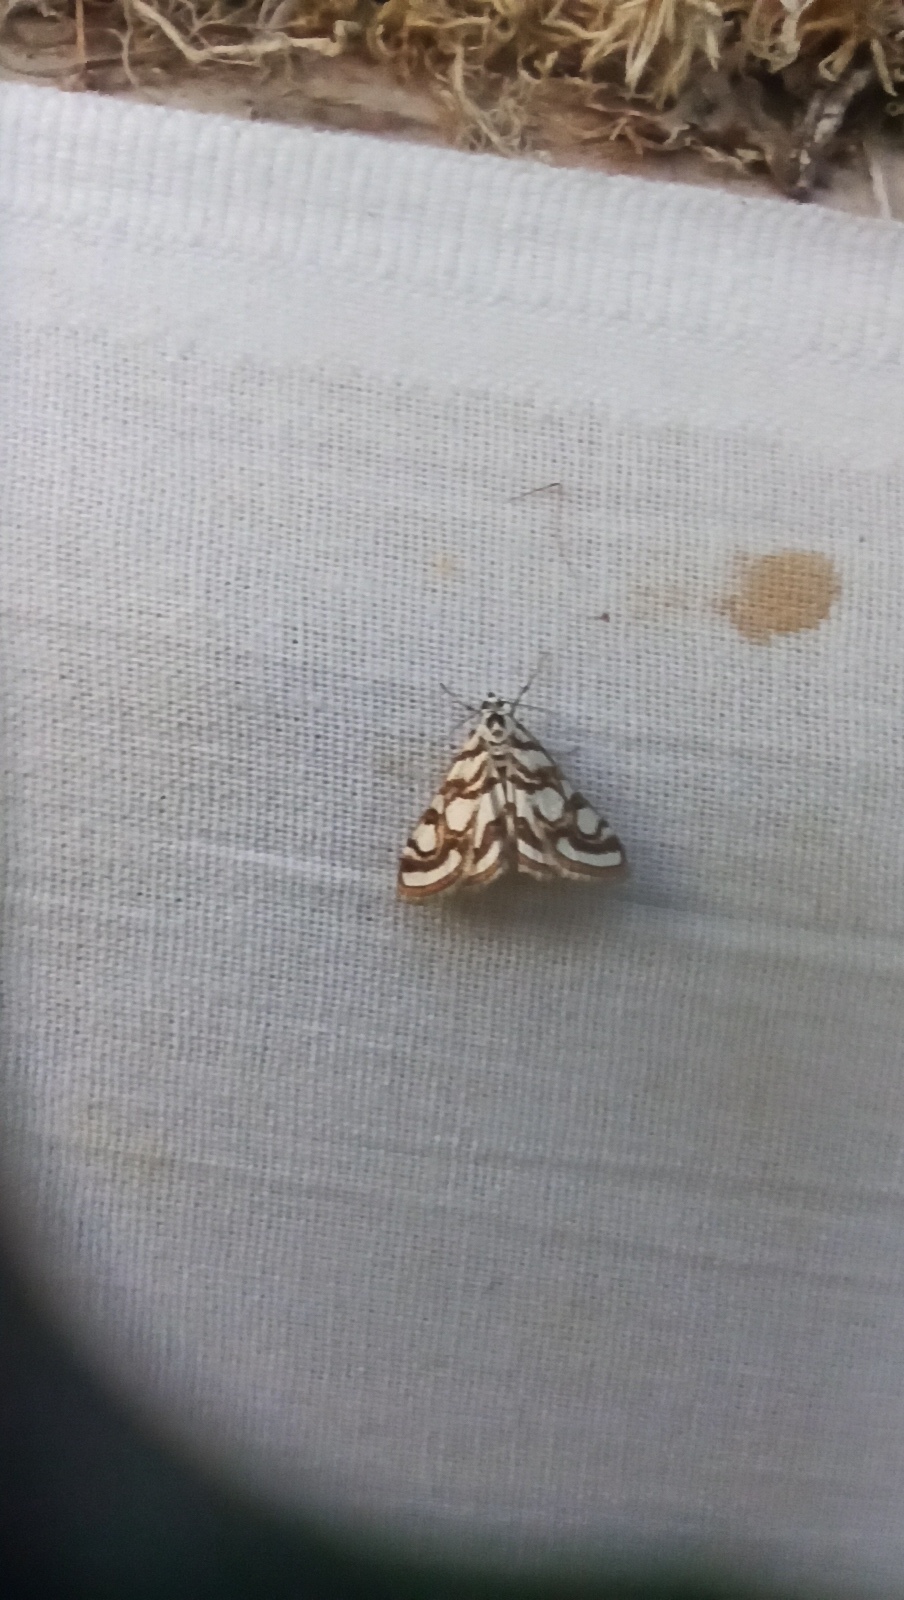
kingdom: Animalia
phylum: Arthropoda
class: Insecta
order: Lepidoptera
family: Crambidae
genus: Nymphula
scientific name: Nymphula nitidulata
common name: Beautiful china mark
